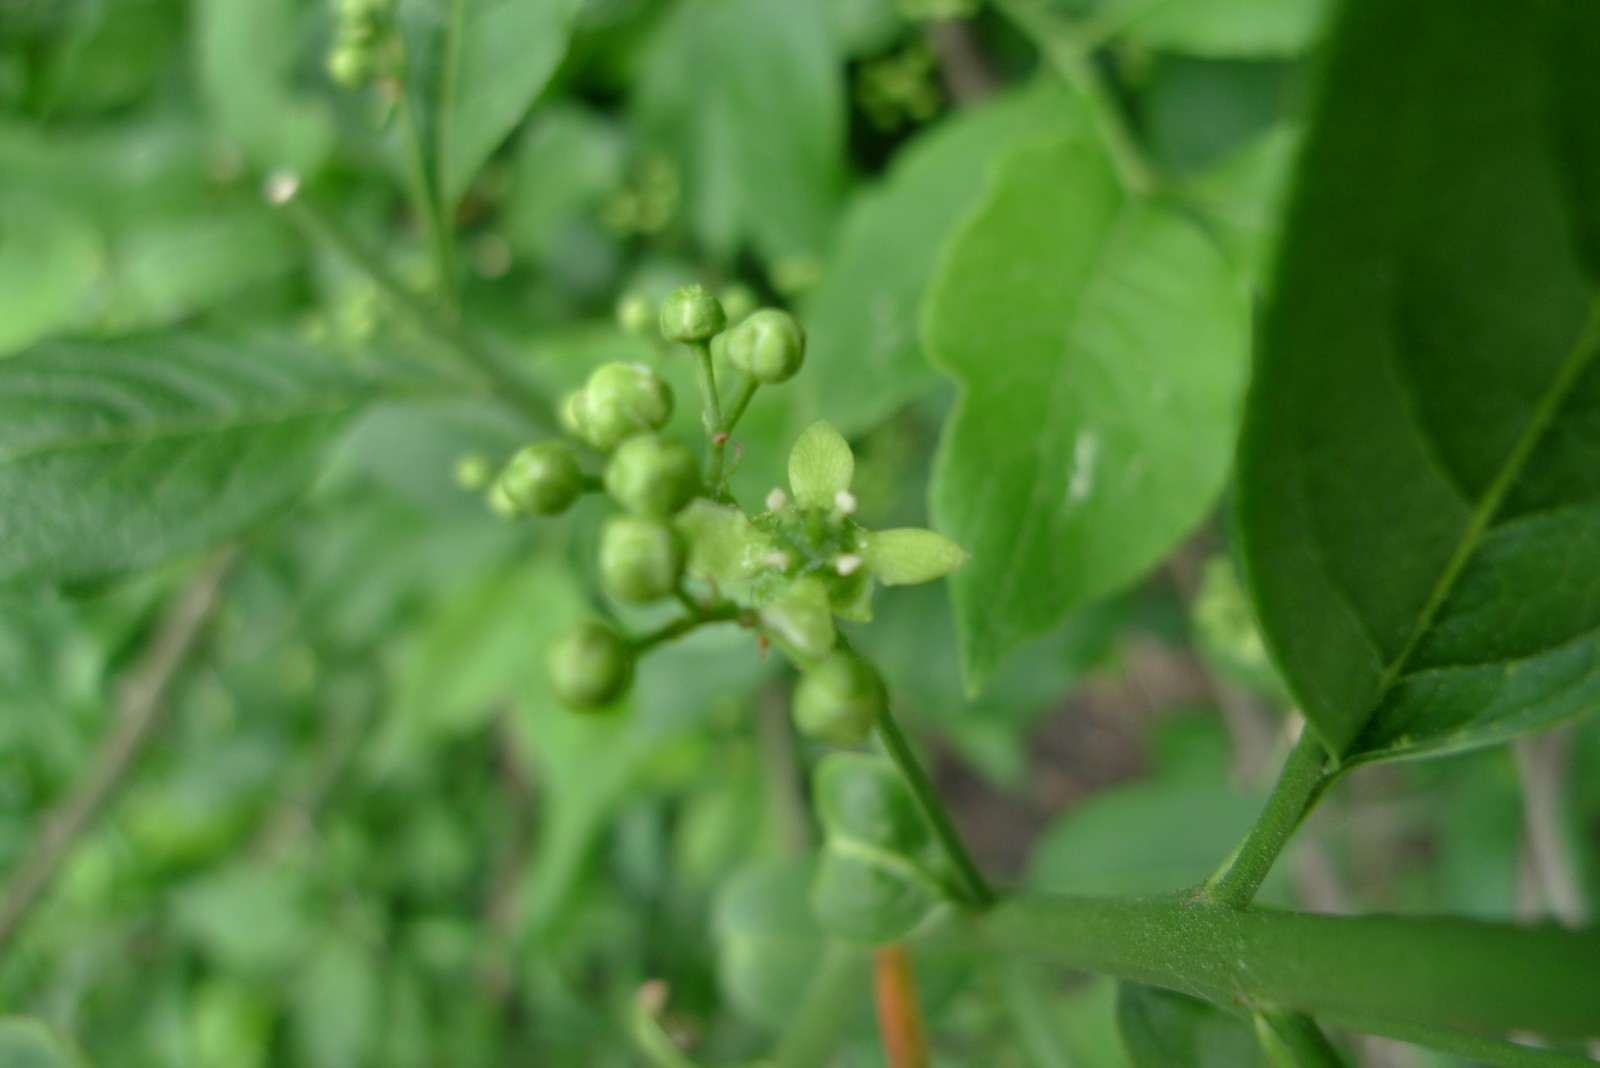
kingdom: Plantae
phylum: Tracheophyta
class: Magnoliopsida
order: Celastrales
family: Celastraceae
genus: Euonymus
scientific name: Euonymus europaeus
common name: Spindle
